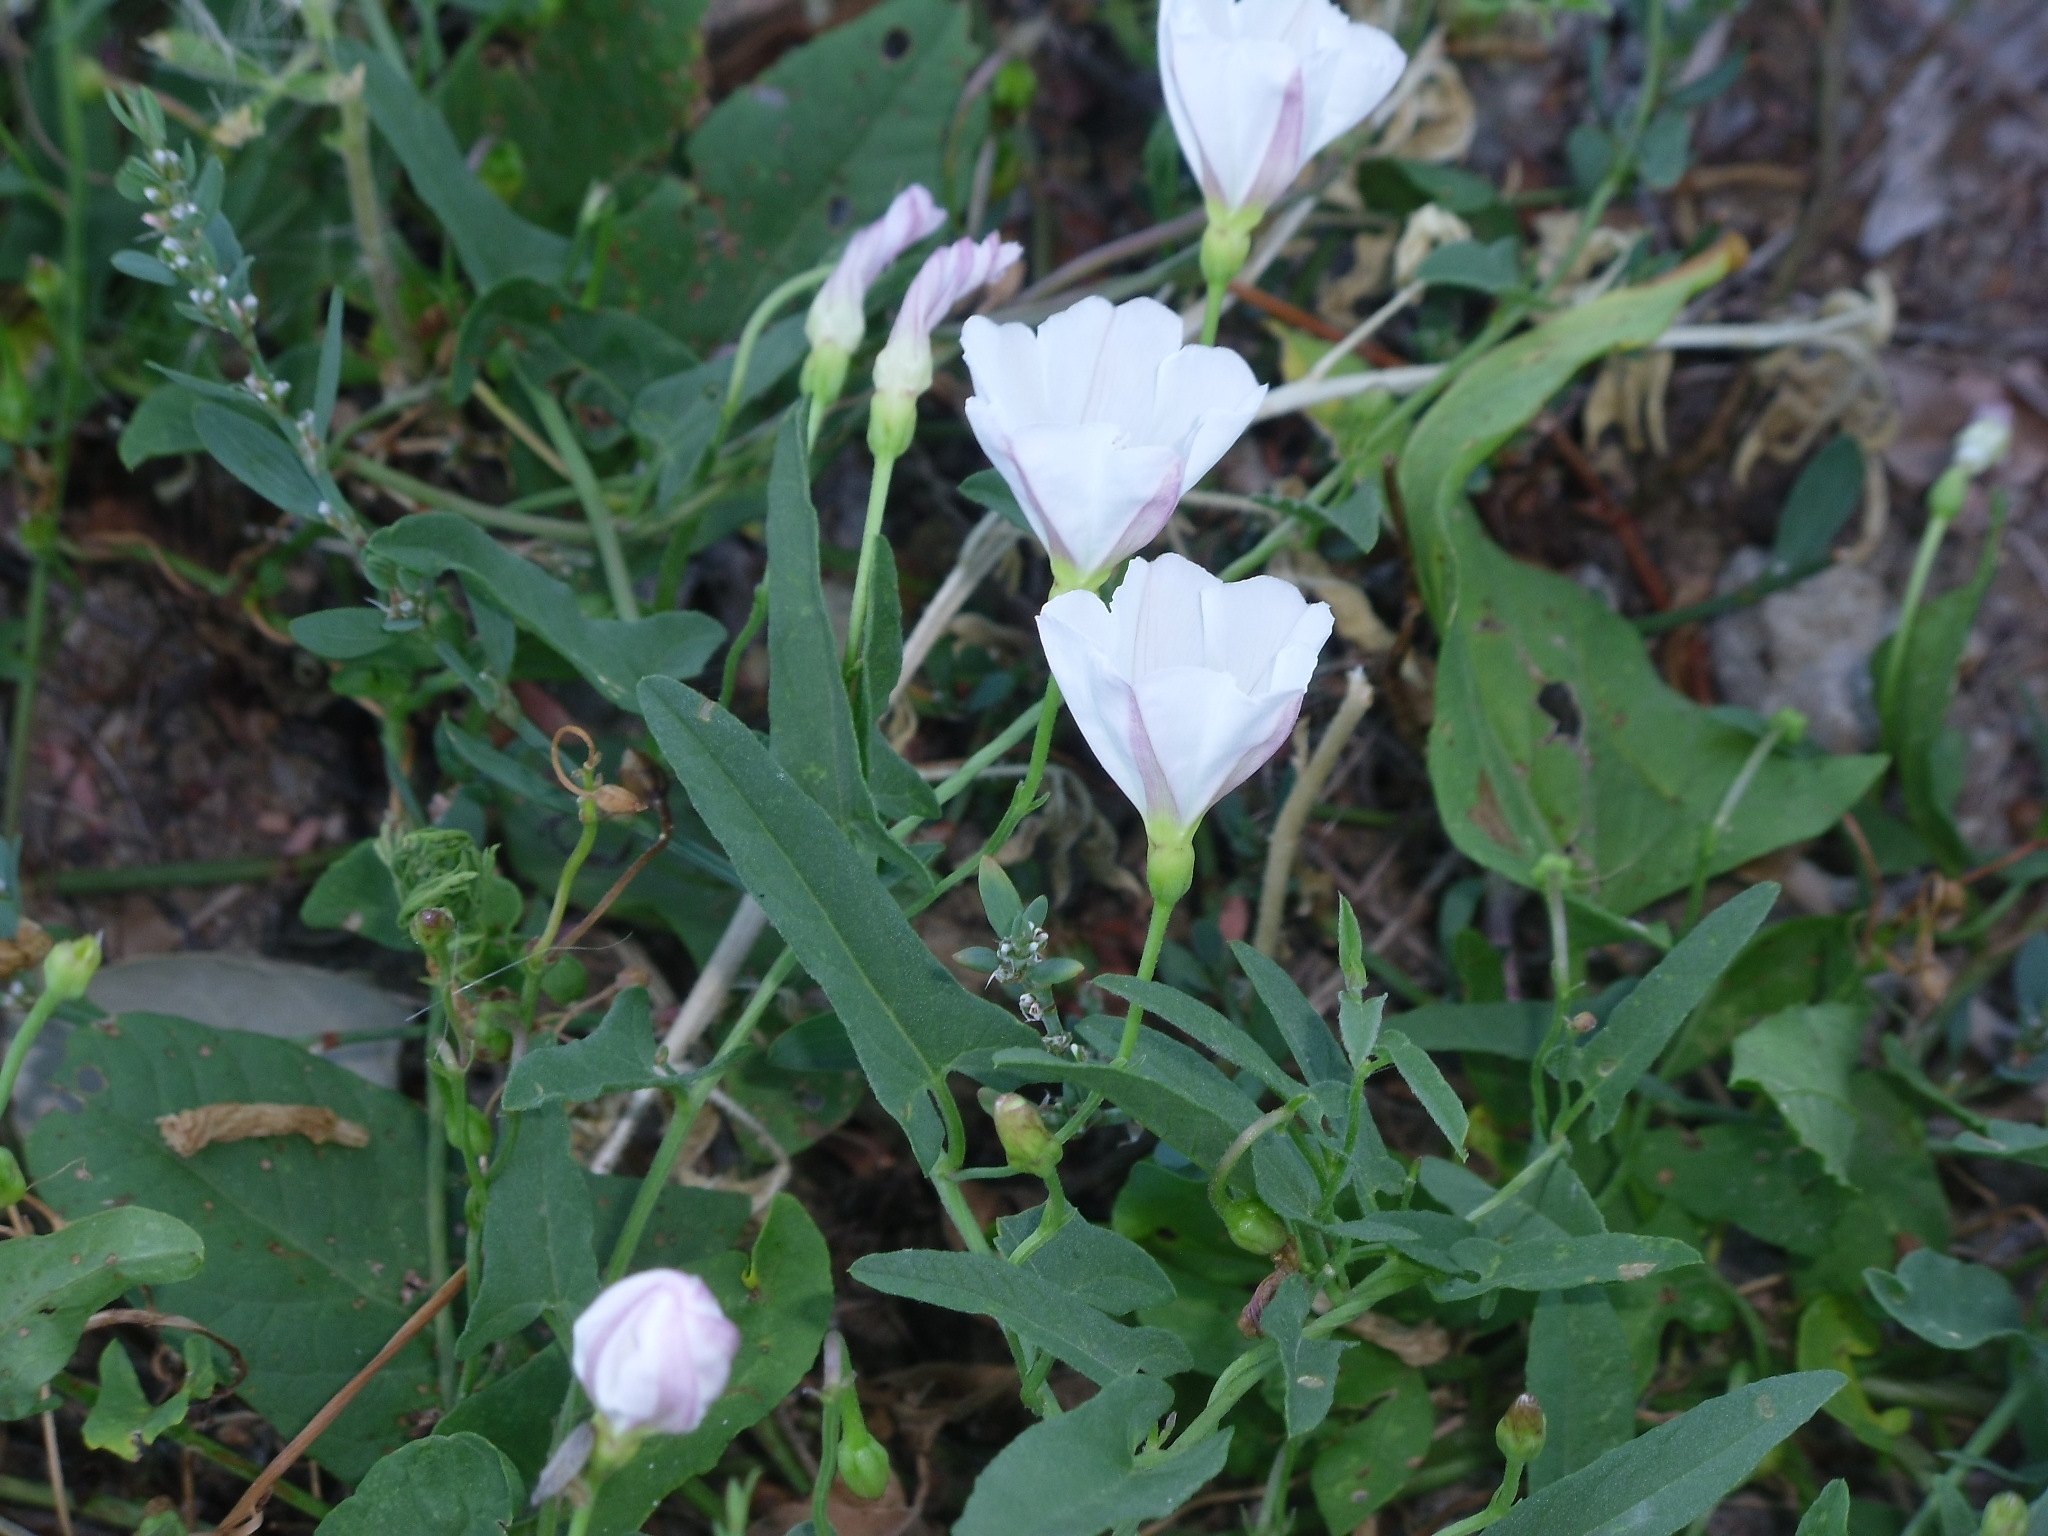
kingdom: Plantae
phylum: Tracheophyta
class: Magnoliopsida
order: Solanales
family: Convolvulaceae
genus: Convolvulus
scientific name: Convolvulus arvensis
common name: Field bindweed
